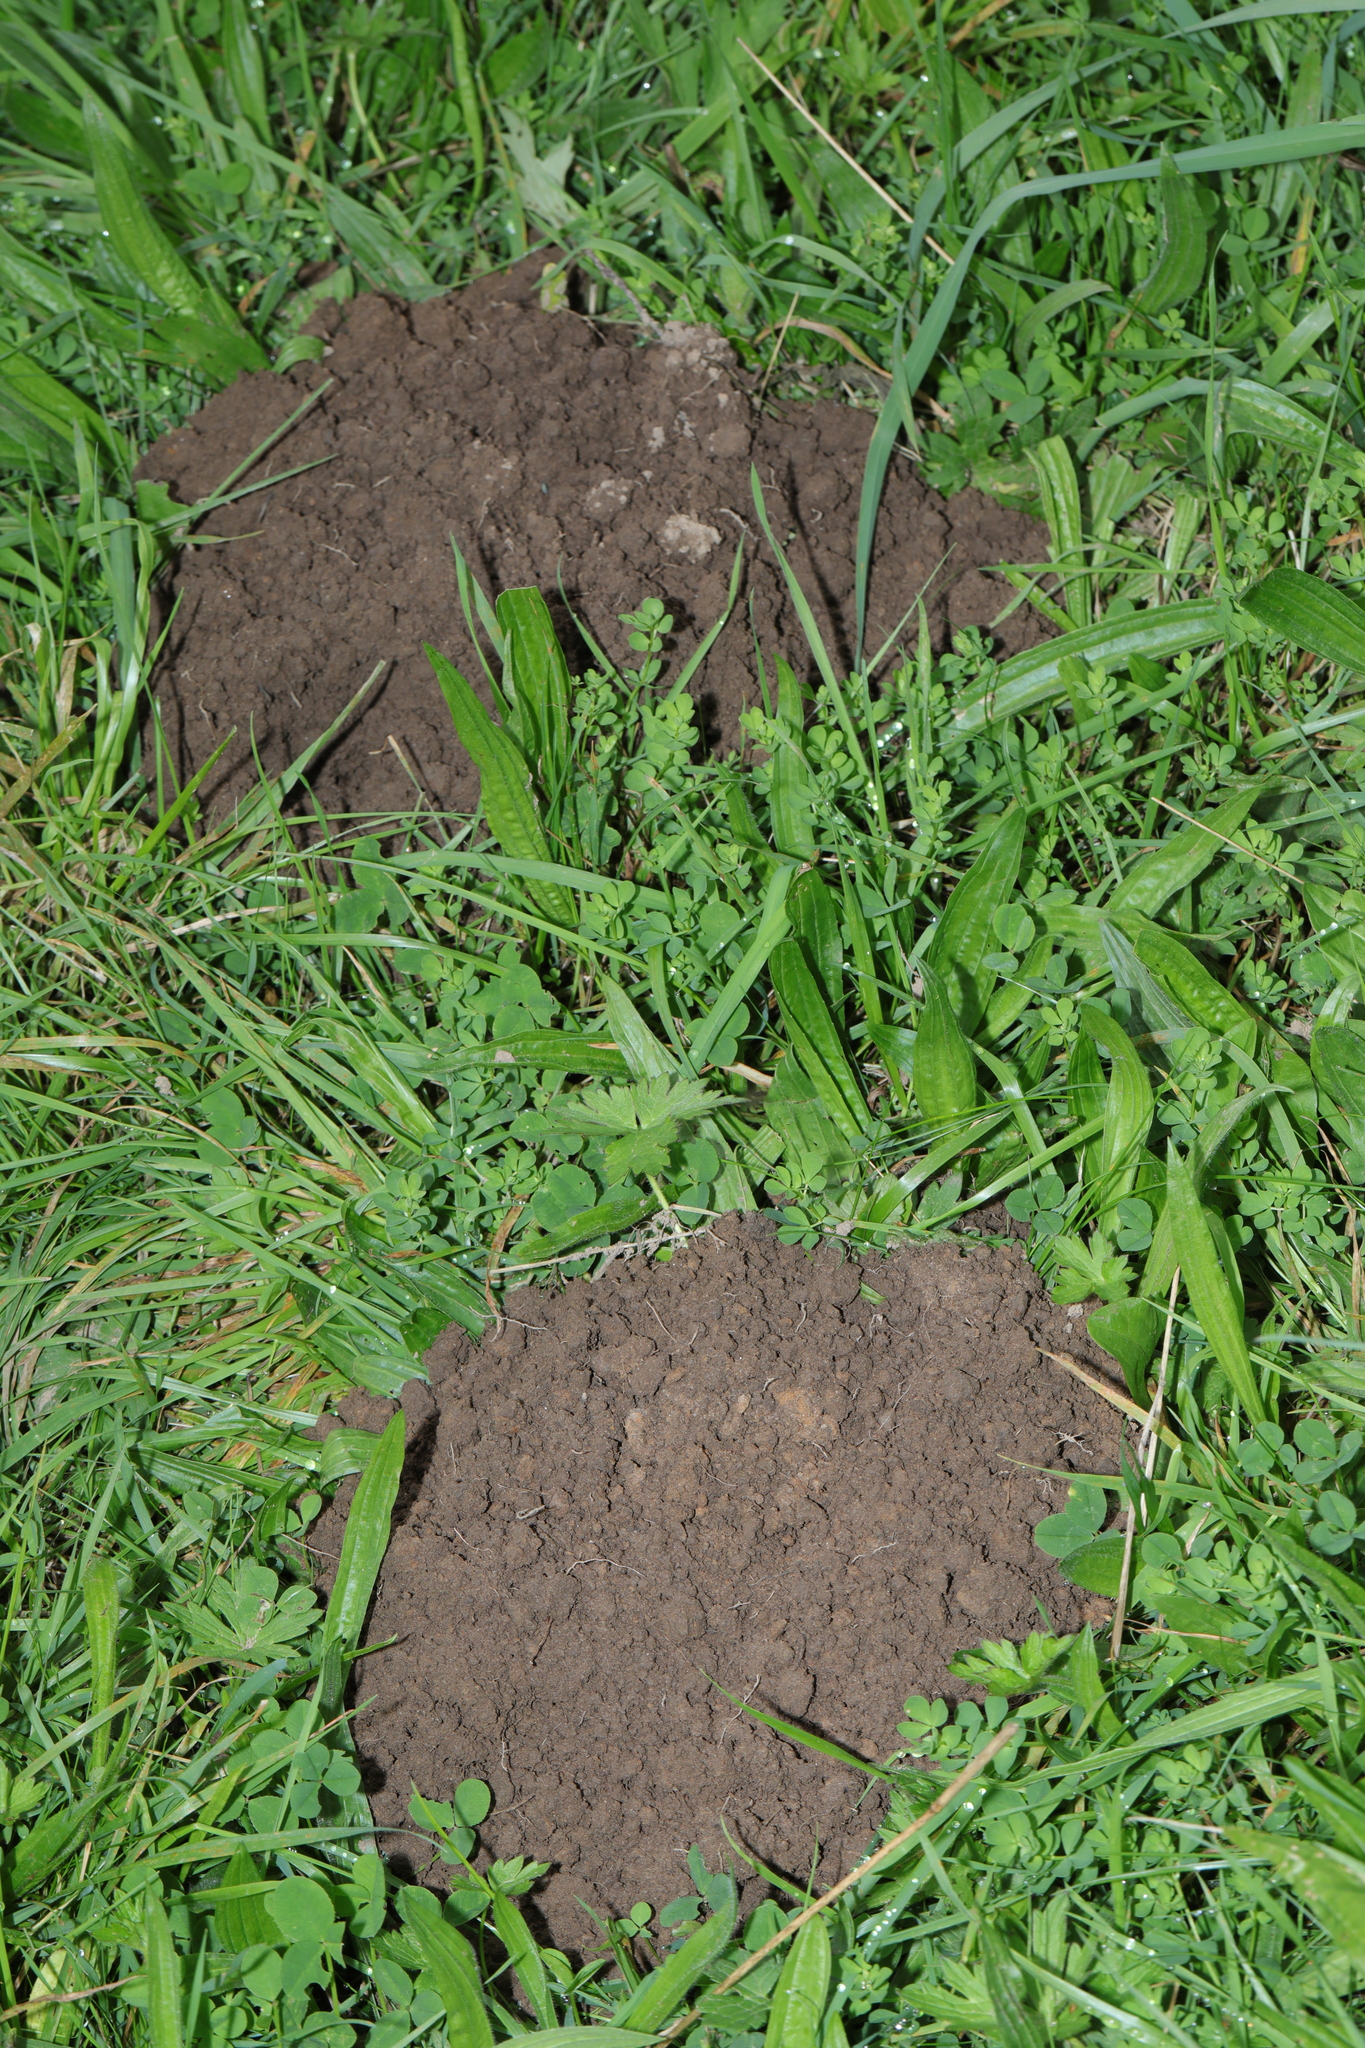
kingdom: Animalia
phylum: Chordata
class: Mammalia
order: Soricomorpha
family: Talpidae
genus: Talpa
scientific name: Talpa europaea
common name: European mole
